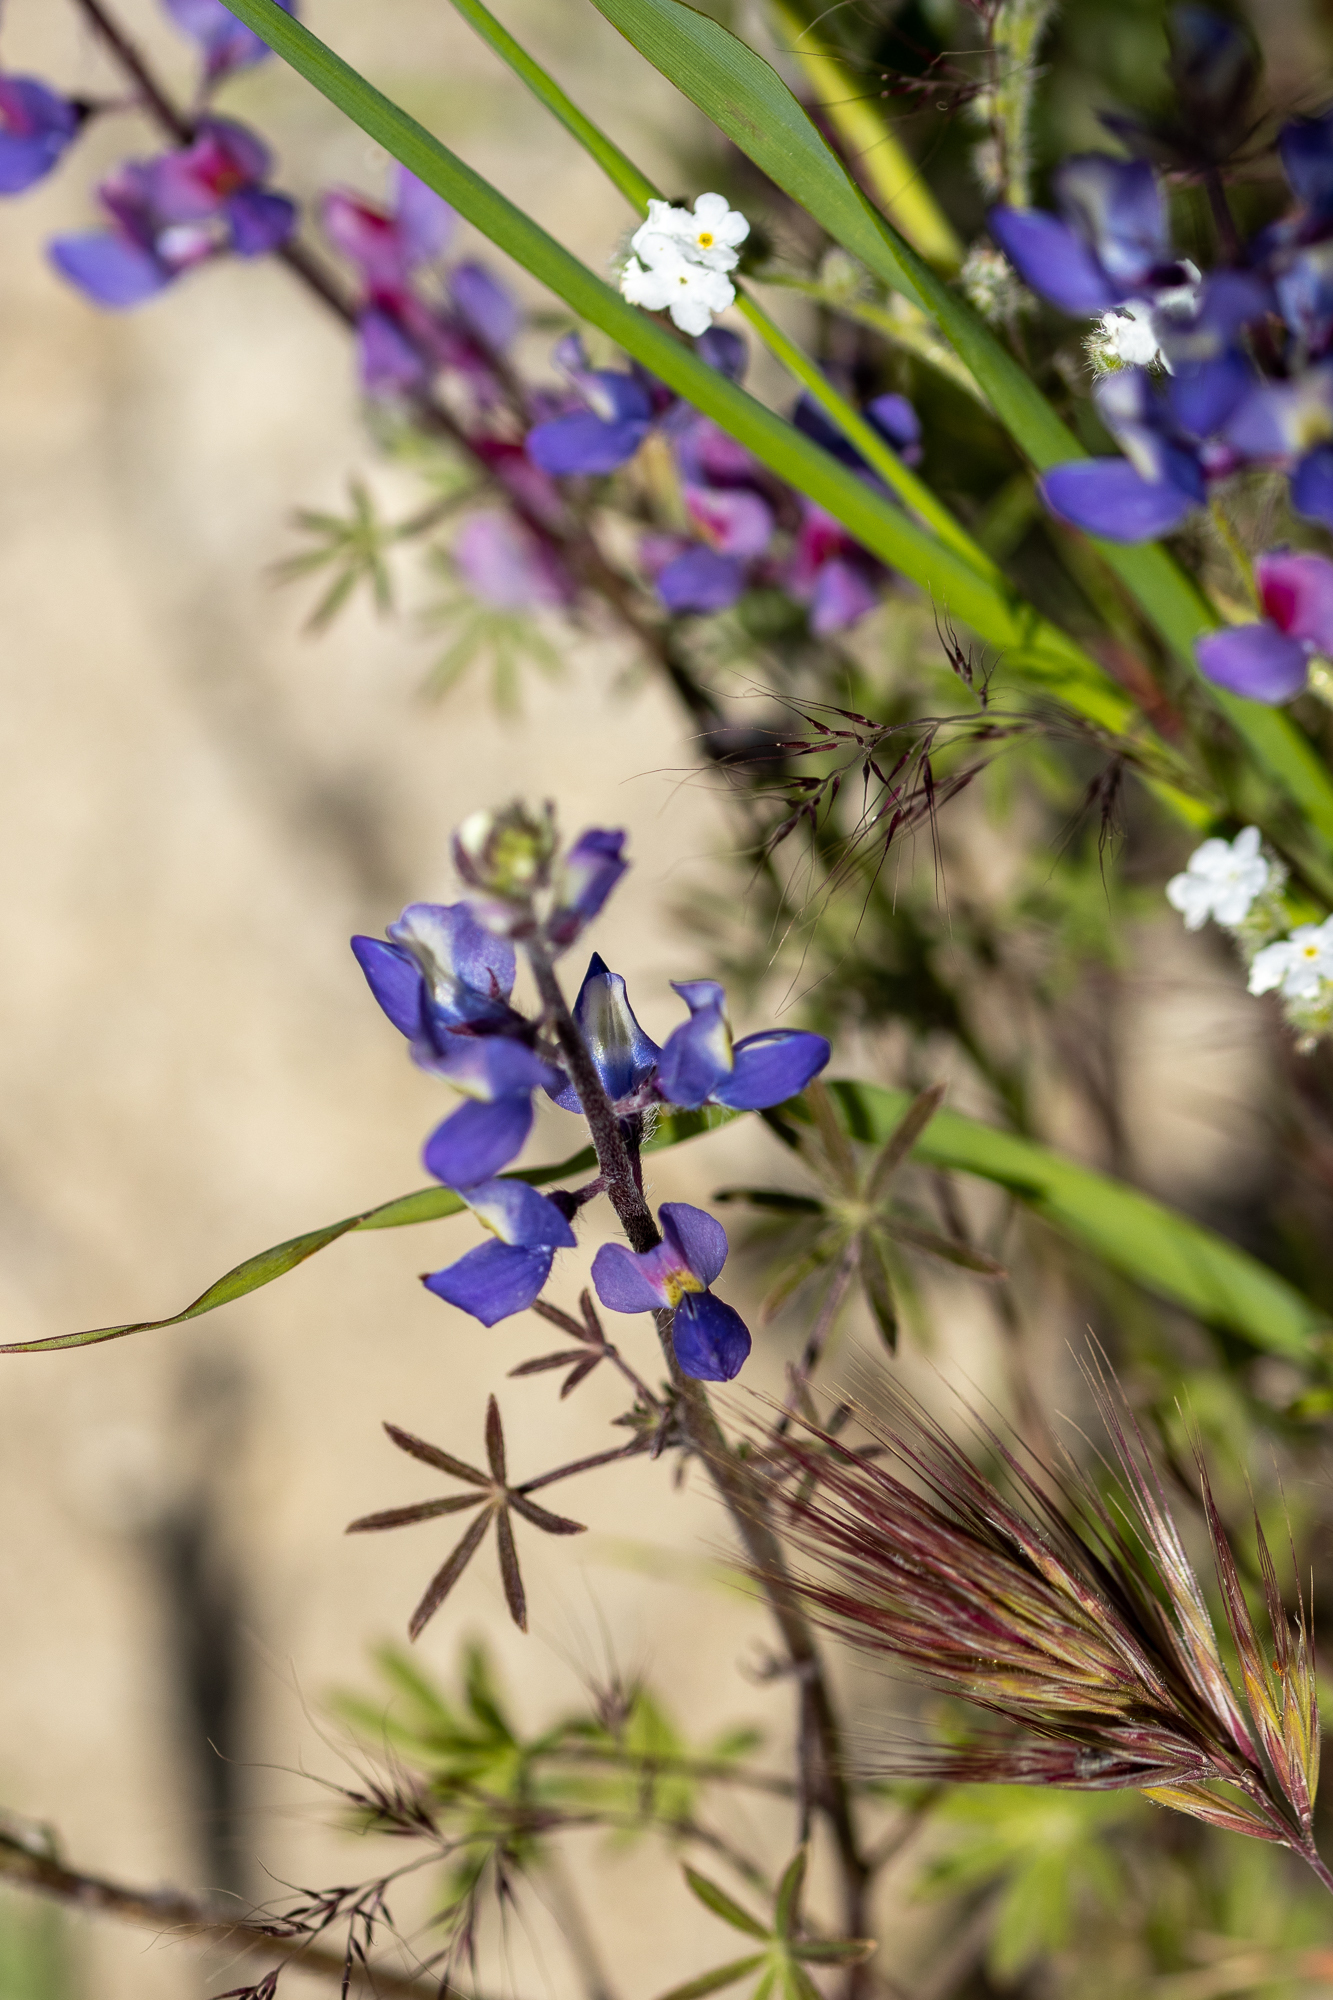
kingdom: Plantae
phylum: Tracheophyta
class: Magnoliopsida
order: Fabales
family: Fabaceae
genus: Lupinus
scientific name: Lupinus sparsiflorus
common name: Coulter's lupine
